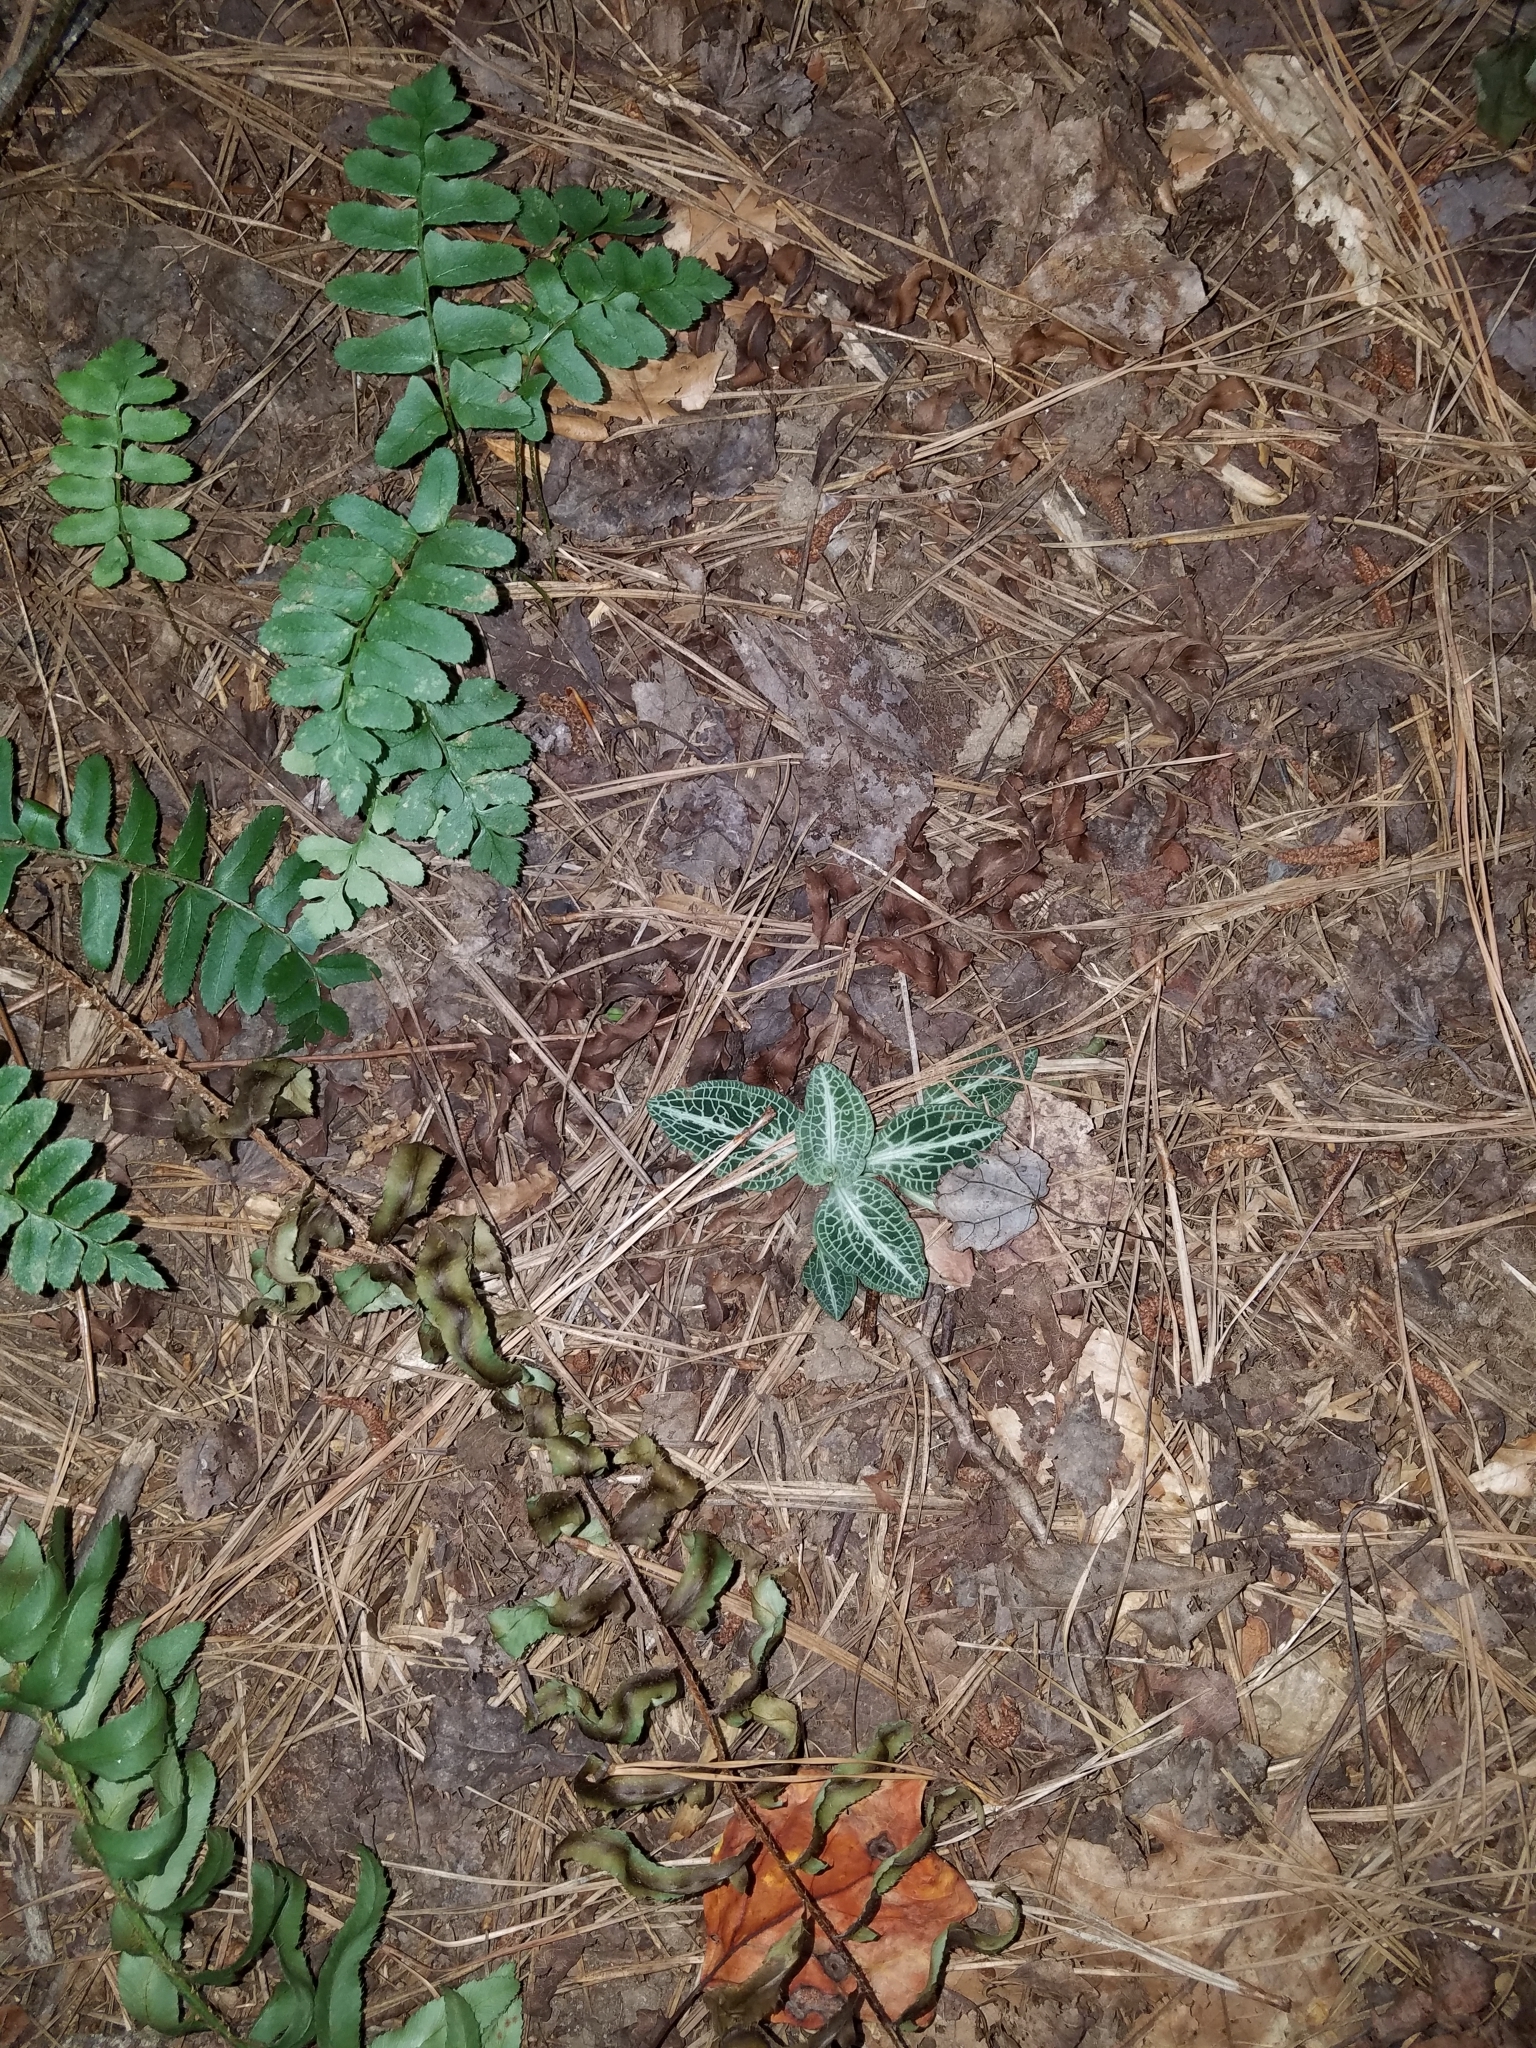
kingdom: Plantae
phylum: Tracheophyta
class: Liliopsida
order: Asparagales
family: Orchidaceae
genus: Goodyera
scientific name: Goodyera pubescens
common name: Downy rattlesnake-plantain
